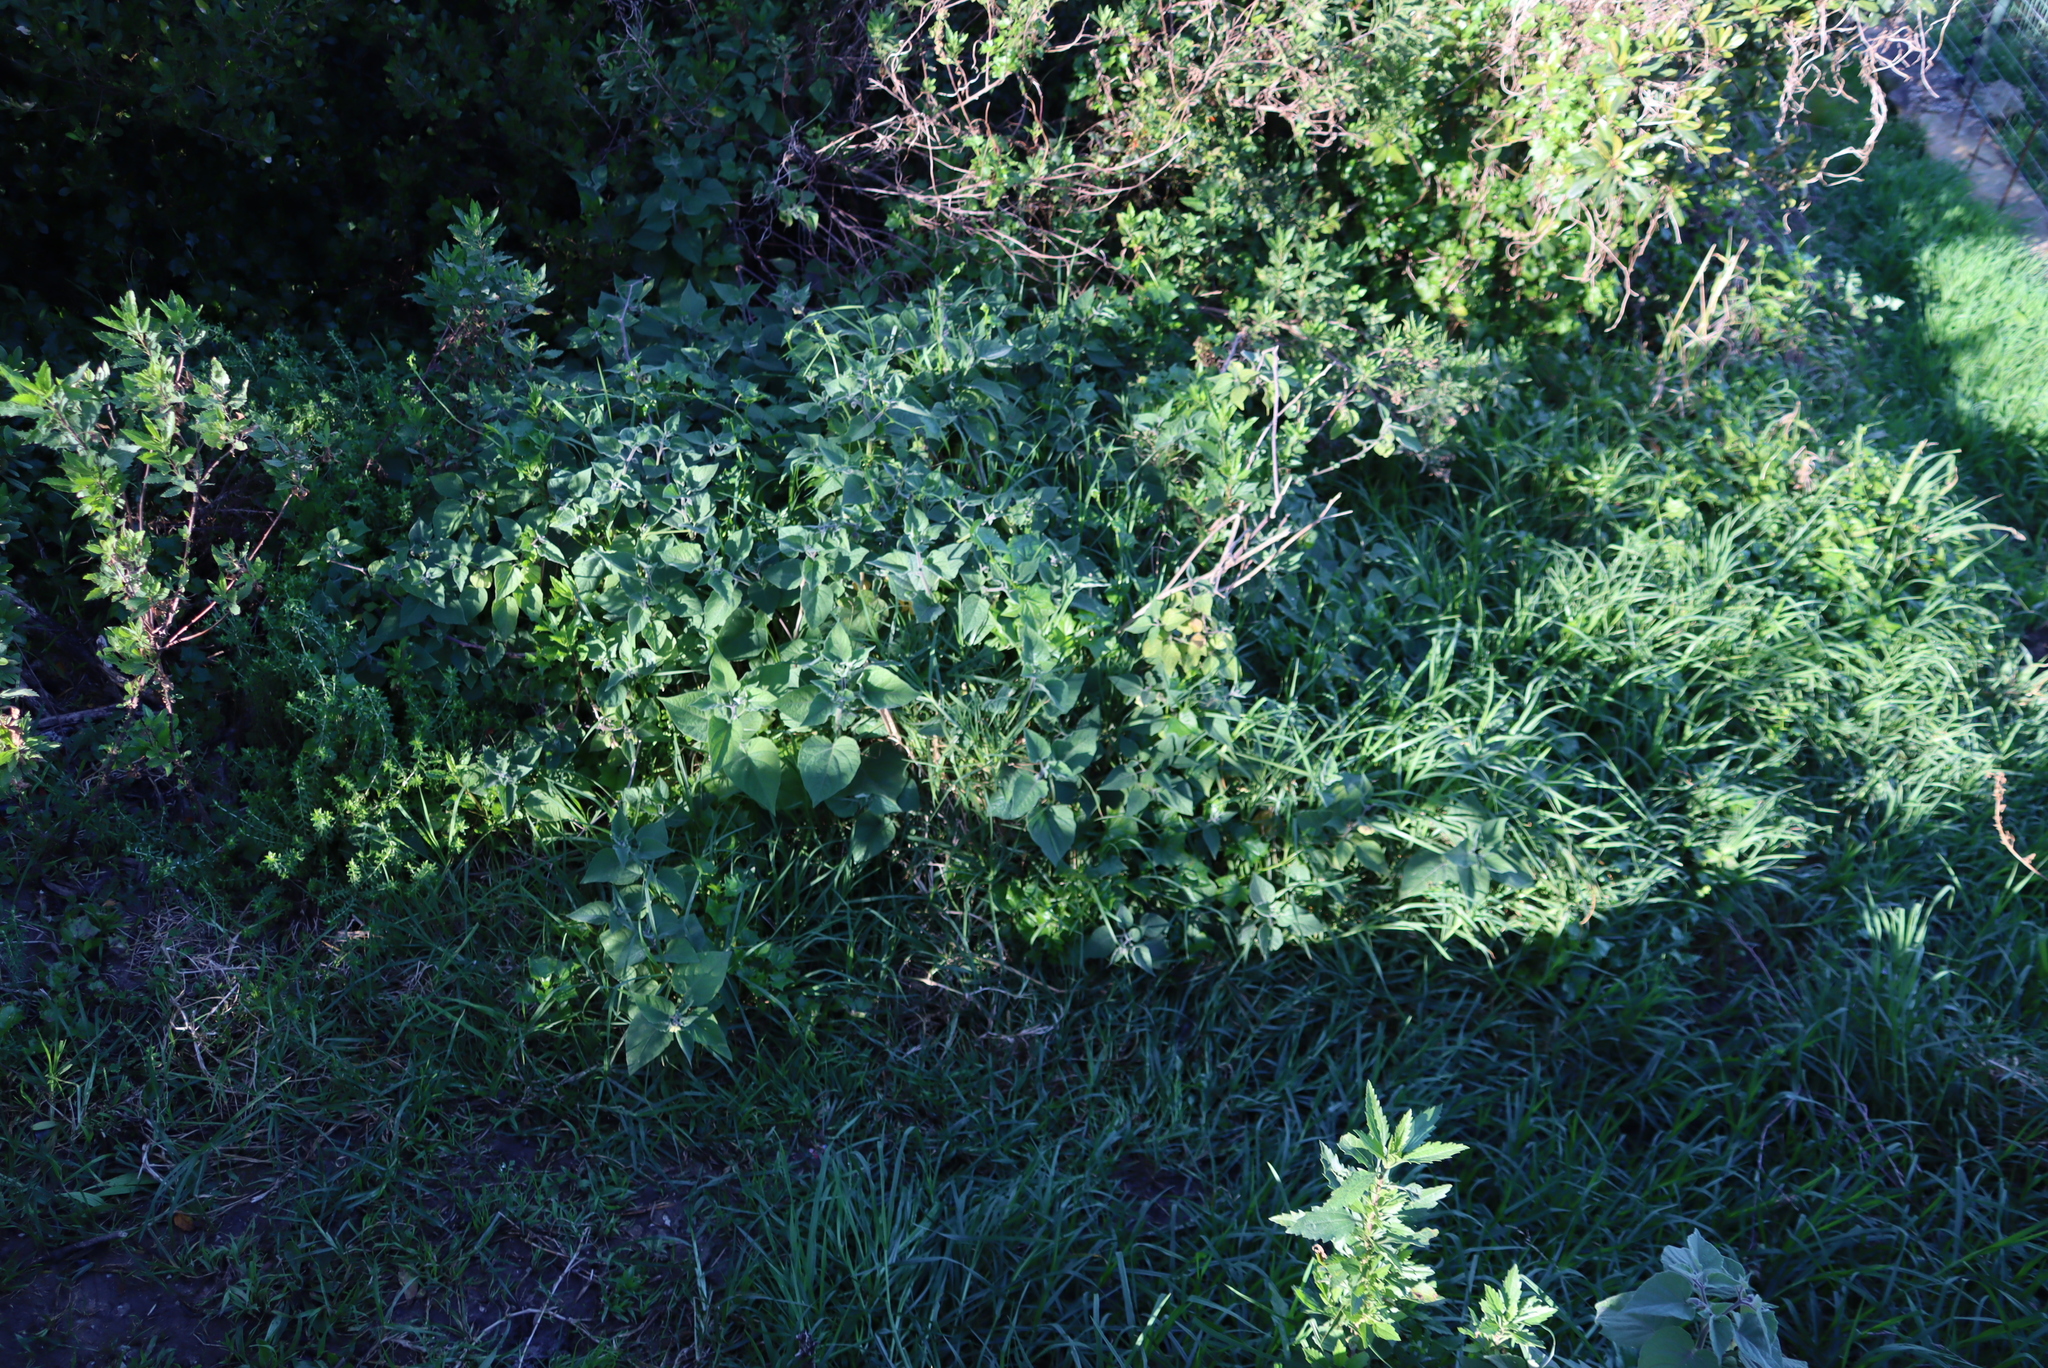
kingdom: Plantae
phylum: Tracheophyta
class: Magnoliopsida
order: Solanales
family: Solanaceae
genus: Physalis
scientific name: Physalis peruviana
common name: Cape-gooseberry
